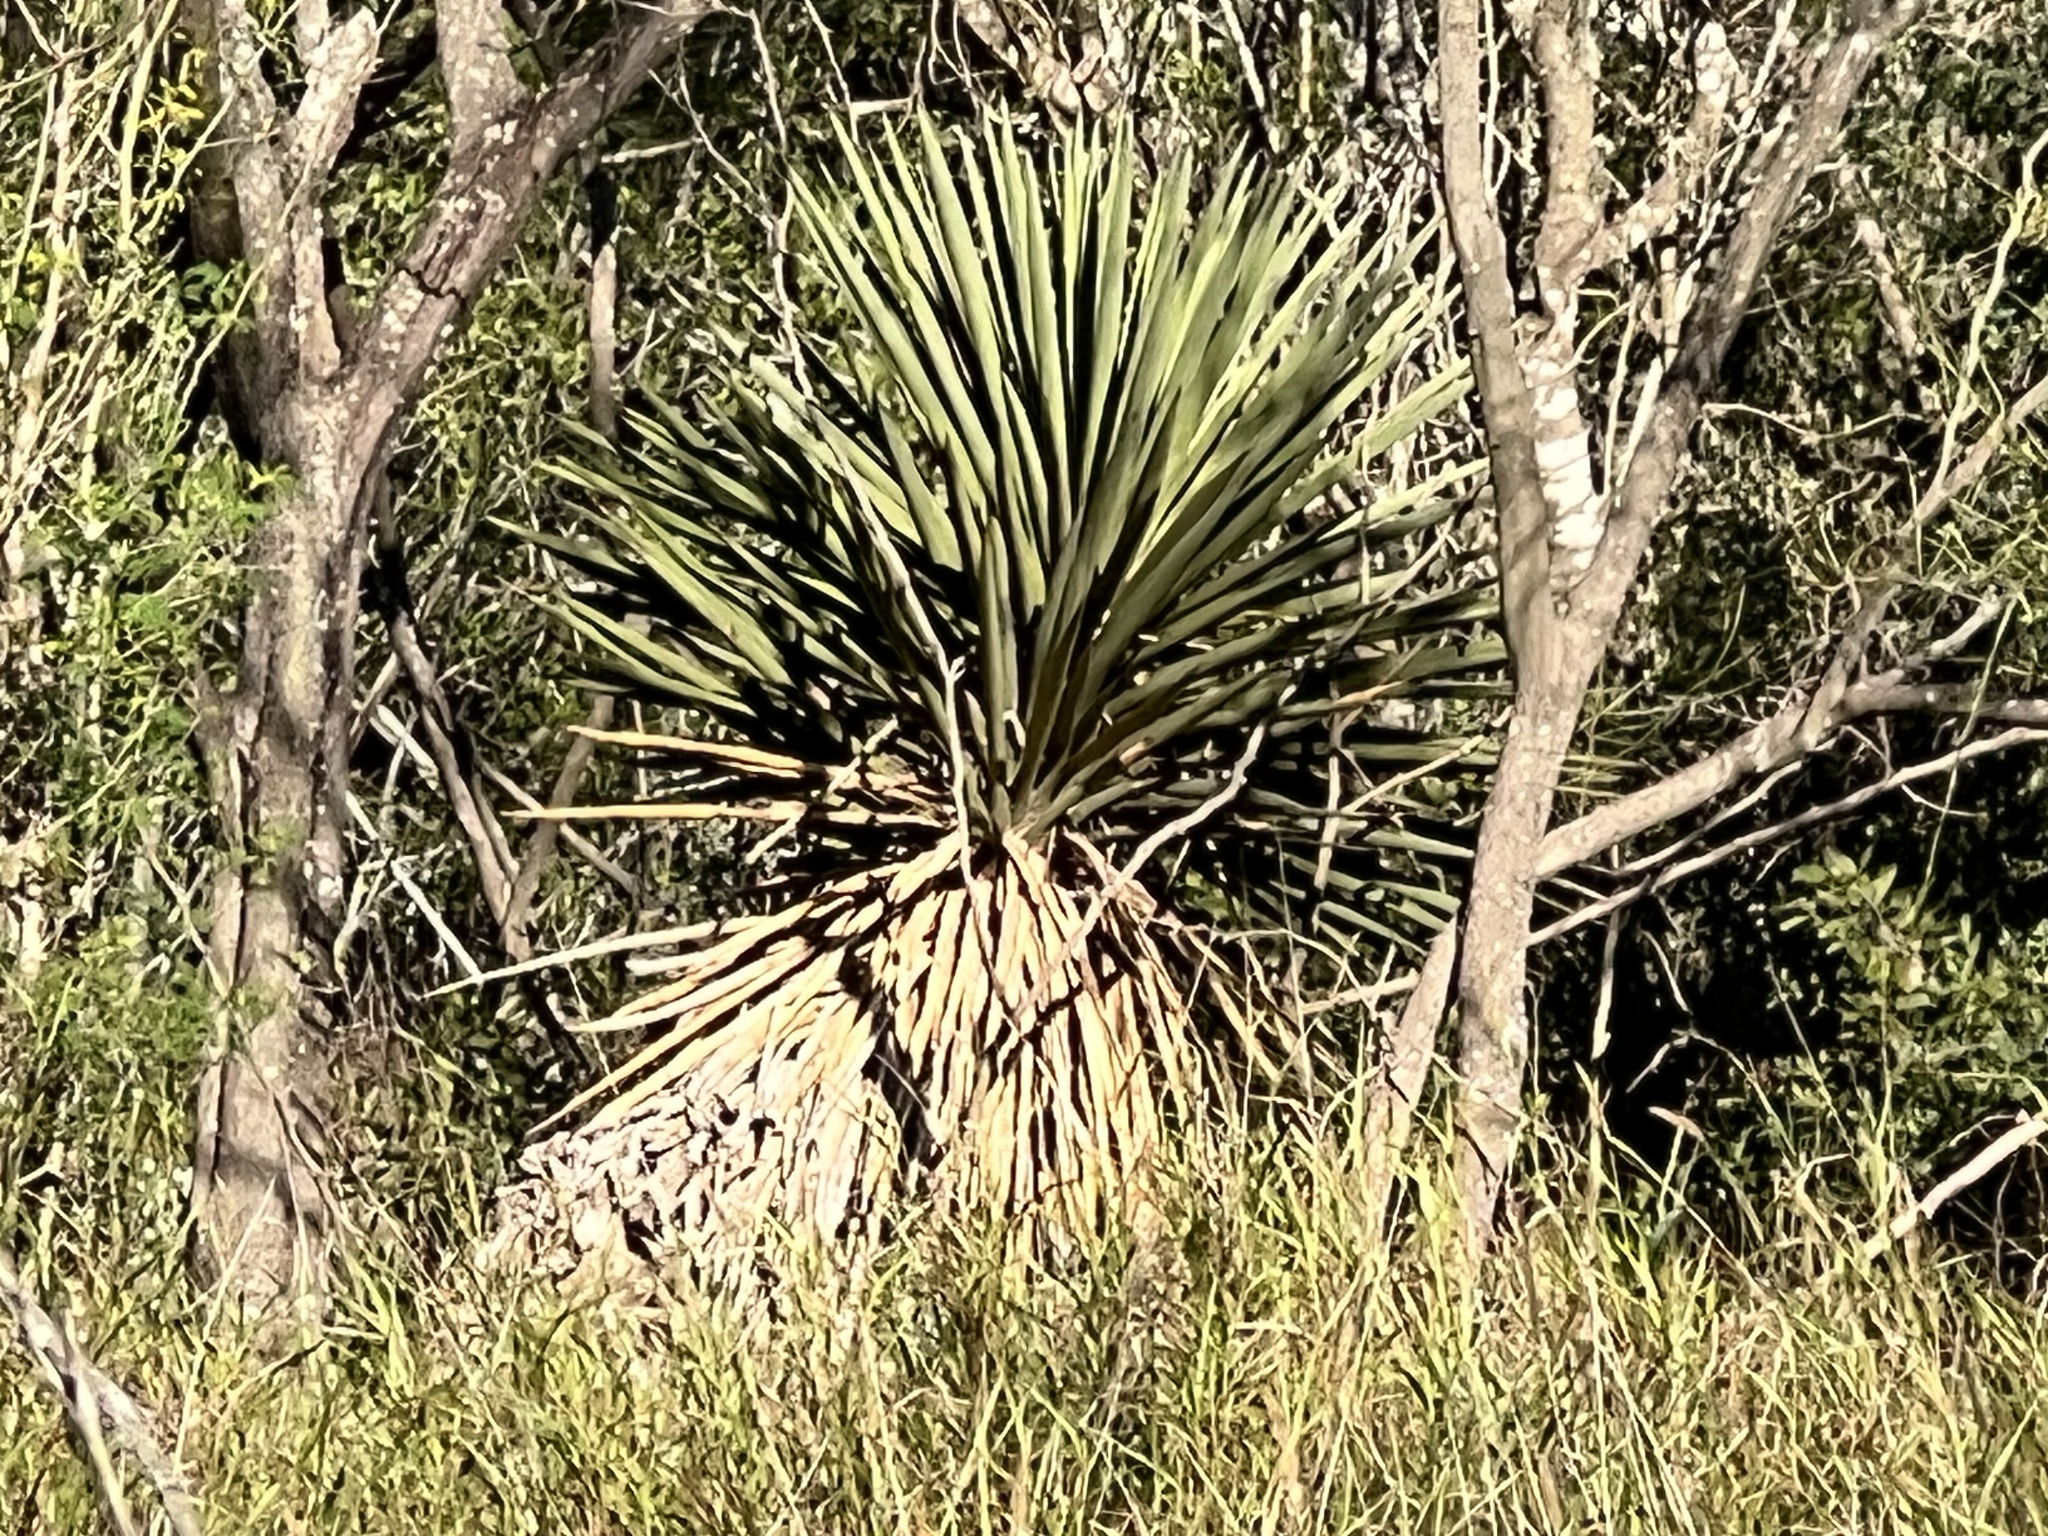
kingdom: Plantae
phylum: Tracheophyta
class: Liliopsida
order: Asparagales
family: Asparagaceae
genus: Yucca
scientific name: Yucca treculiana
